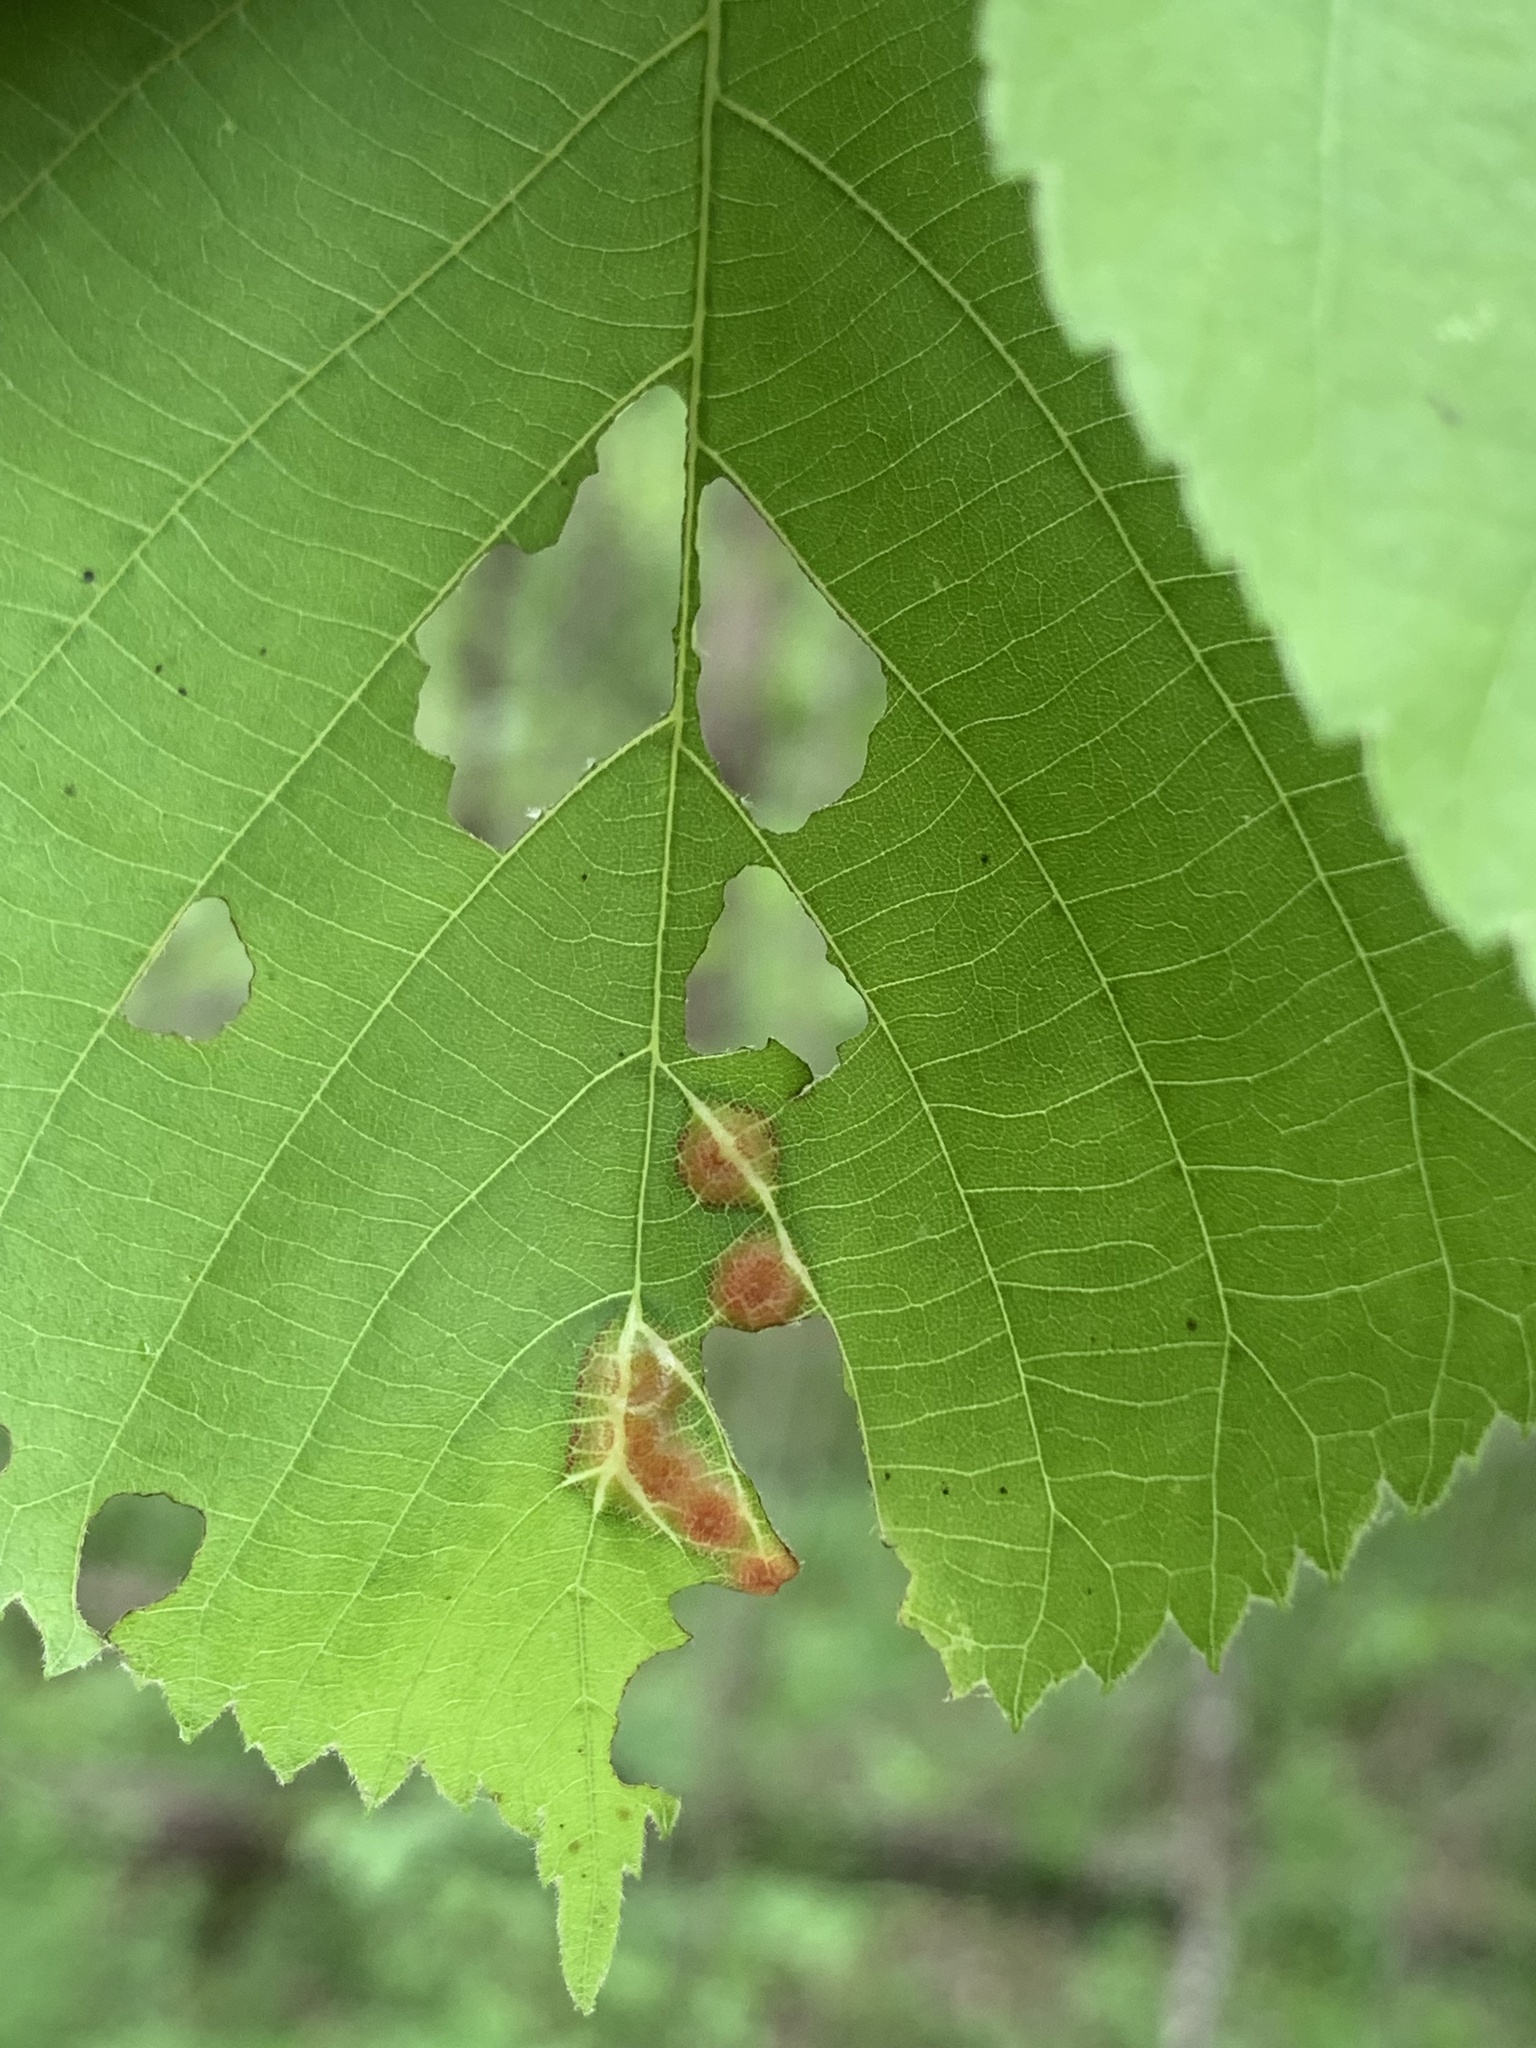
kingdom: Animalia
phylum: Arthropoda
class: Insecta
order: Diptera
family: Cecidomyiidae
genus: Contarinia
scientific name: Contarinia verrucicola
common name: Linden wart gall midge
